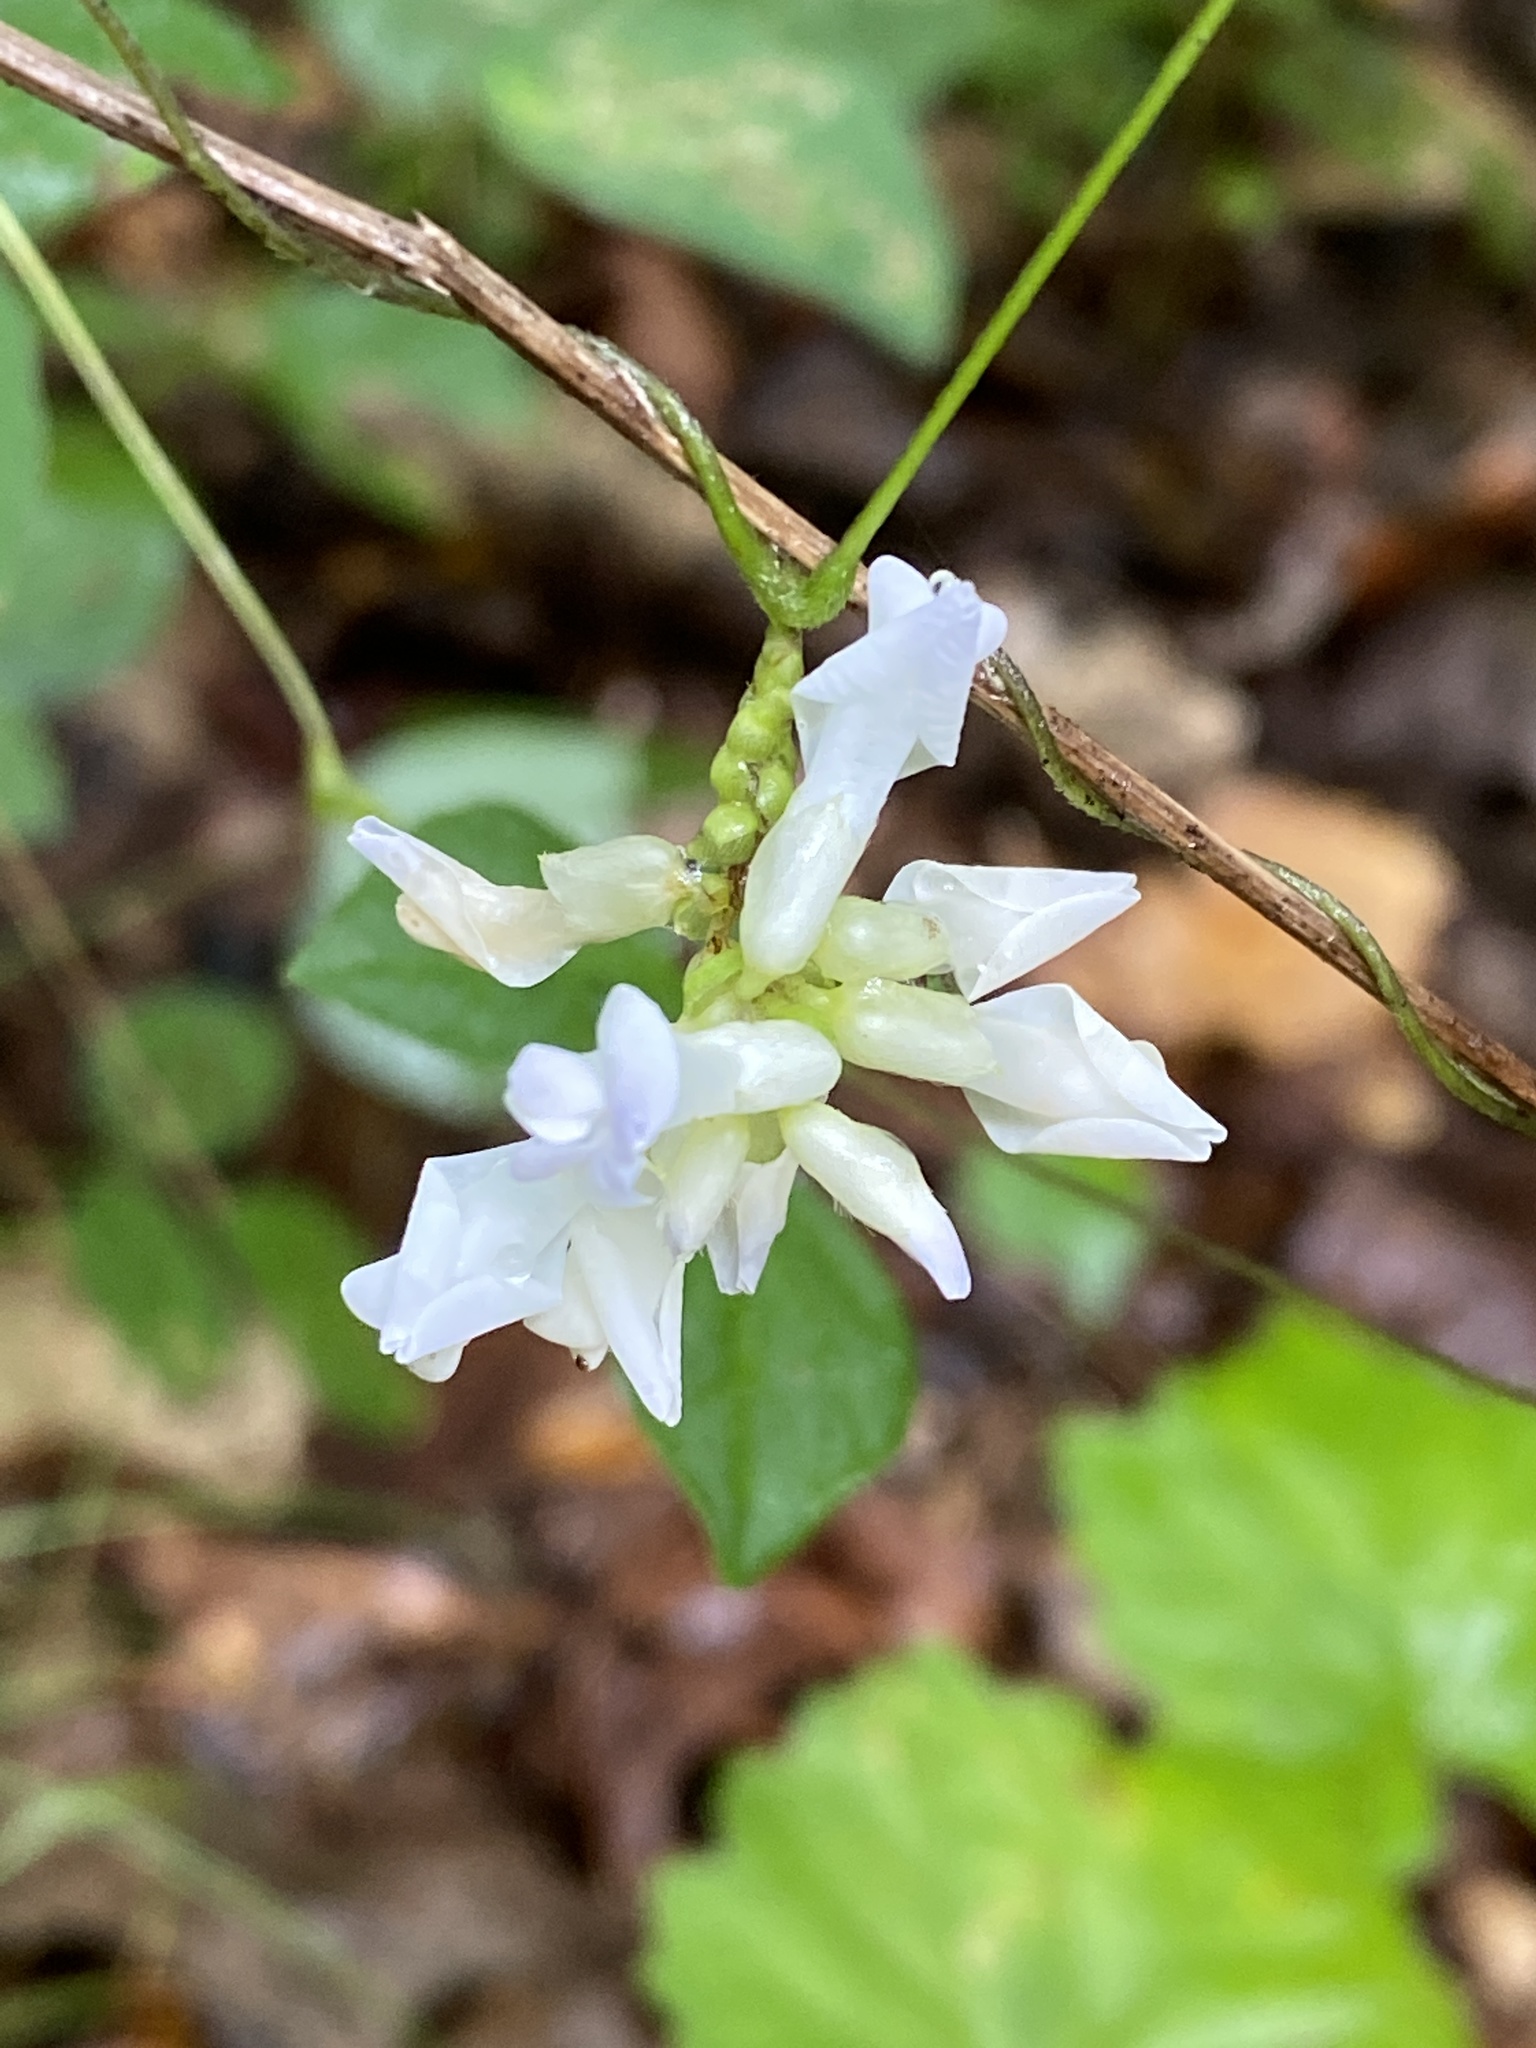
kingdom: Plantae
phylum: Tracheophyta
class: Magnoliopsida
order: Fabales
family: Fabaceae
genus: Amphicarpaea
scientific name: Amphicarpaea bracteata
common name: American hog peanut
